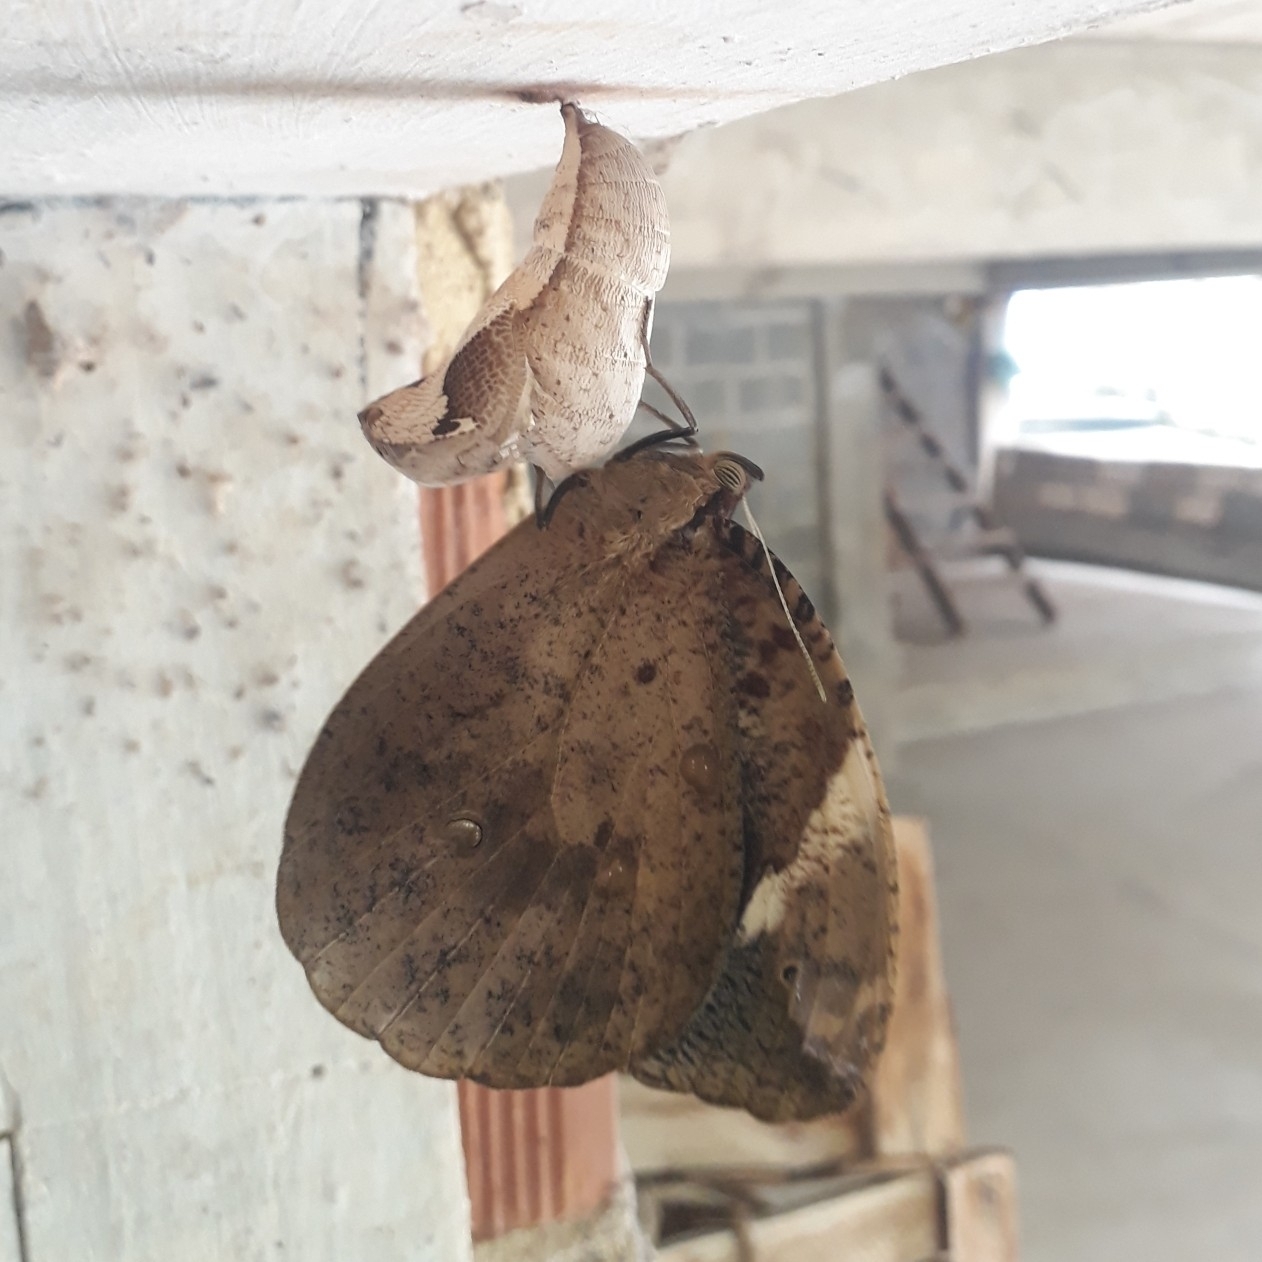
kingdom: Animalia
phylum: Arthropoda
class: Insecta
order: Lepidoptera
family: Nymphalidae
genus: Dynastor
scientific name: Dynastor darius
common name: Daring owl-butterfly
